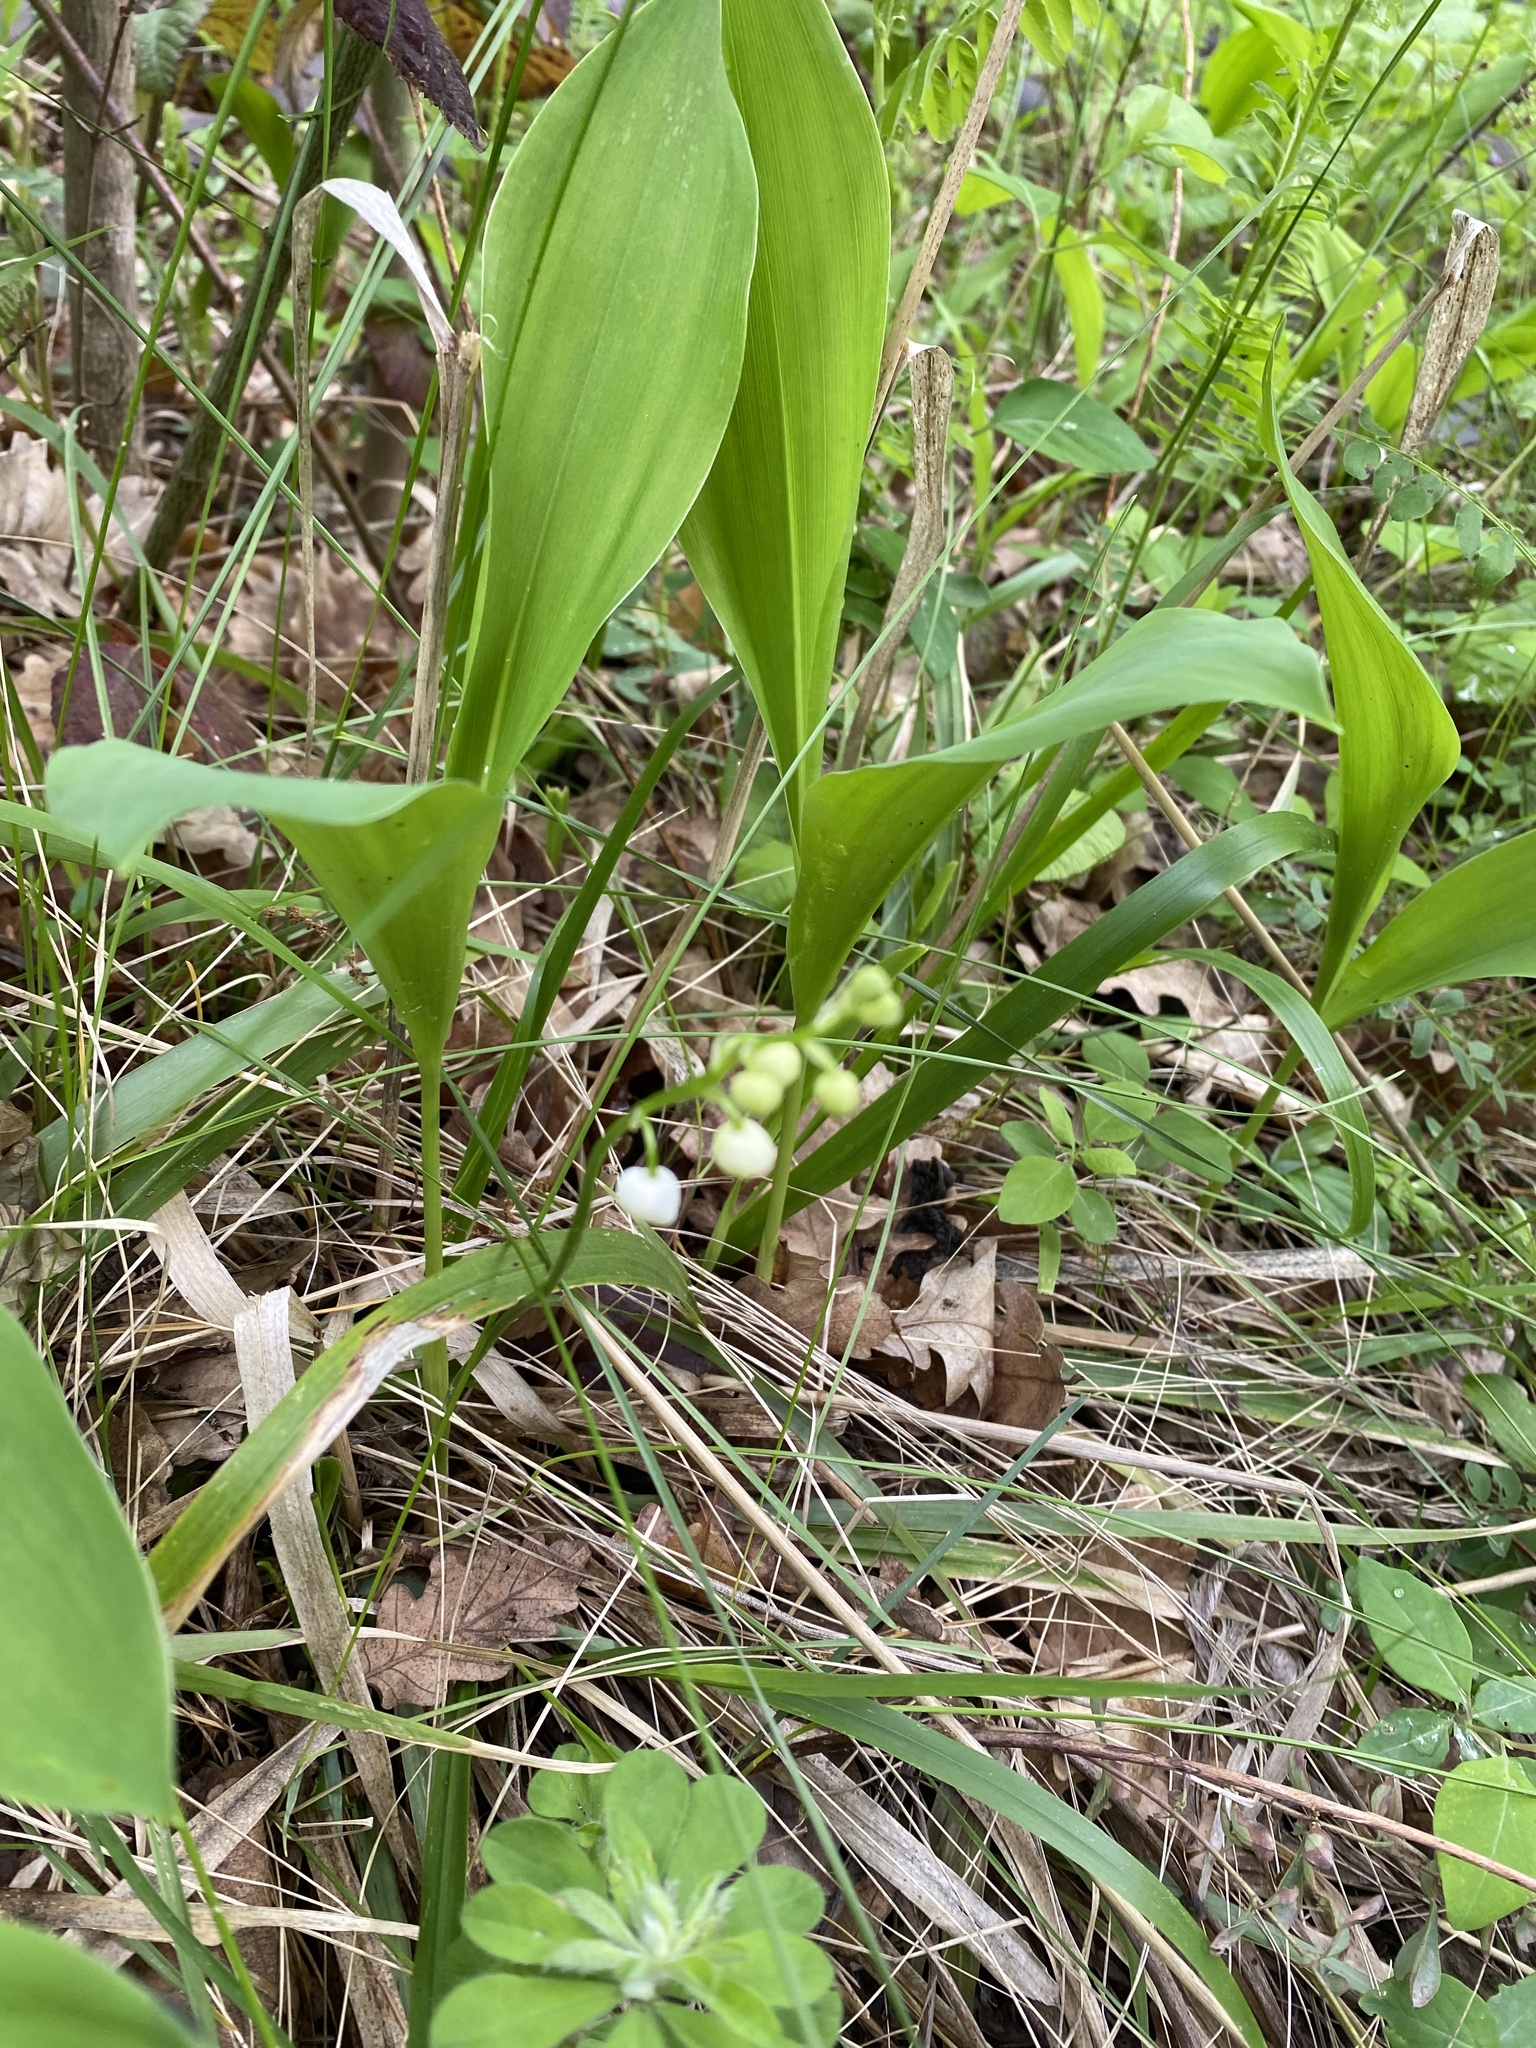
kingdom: Plantae
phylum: Tracheophyta
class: Liliopsida
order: Asparagales
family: Asparagaceae
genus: Convallaria
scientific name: Convallaria majalis
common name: Lily-of-the-valley
